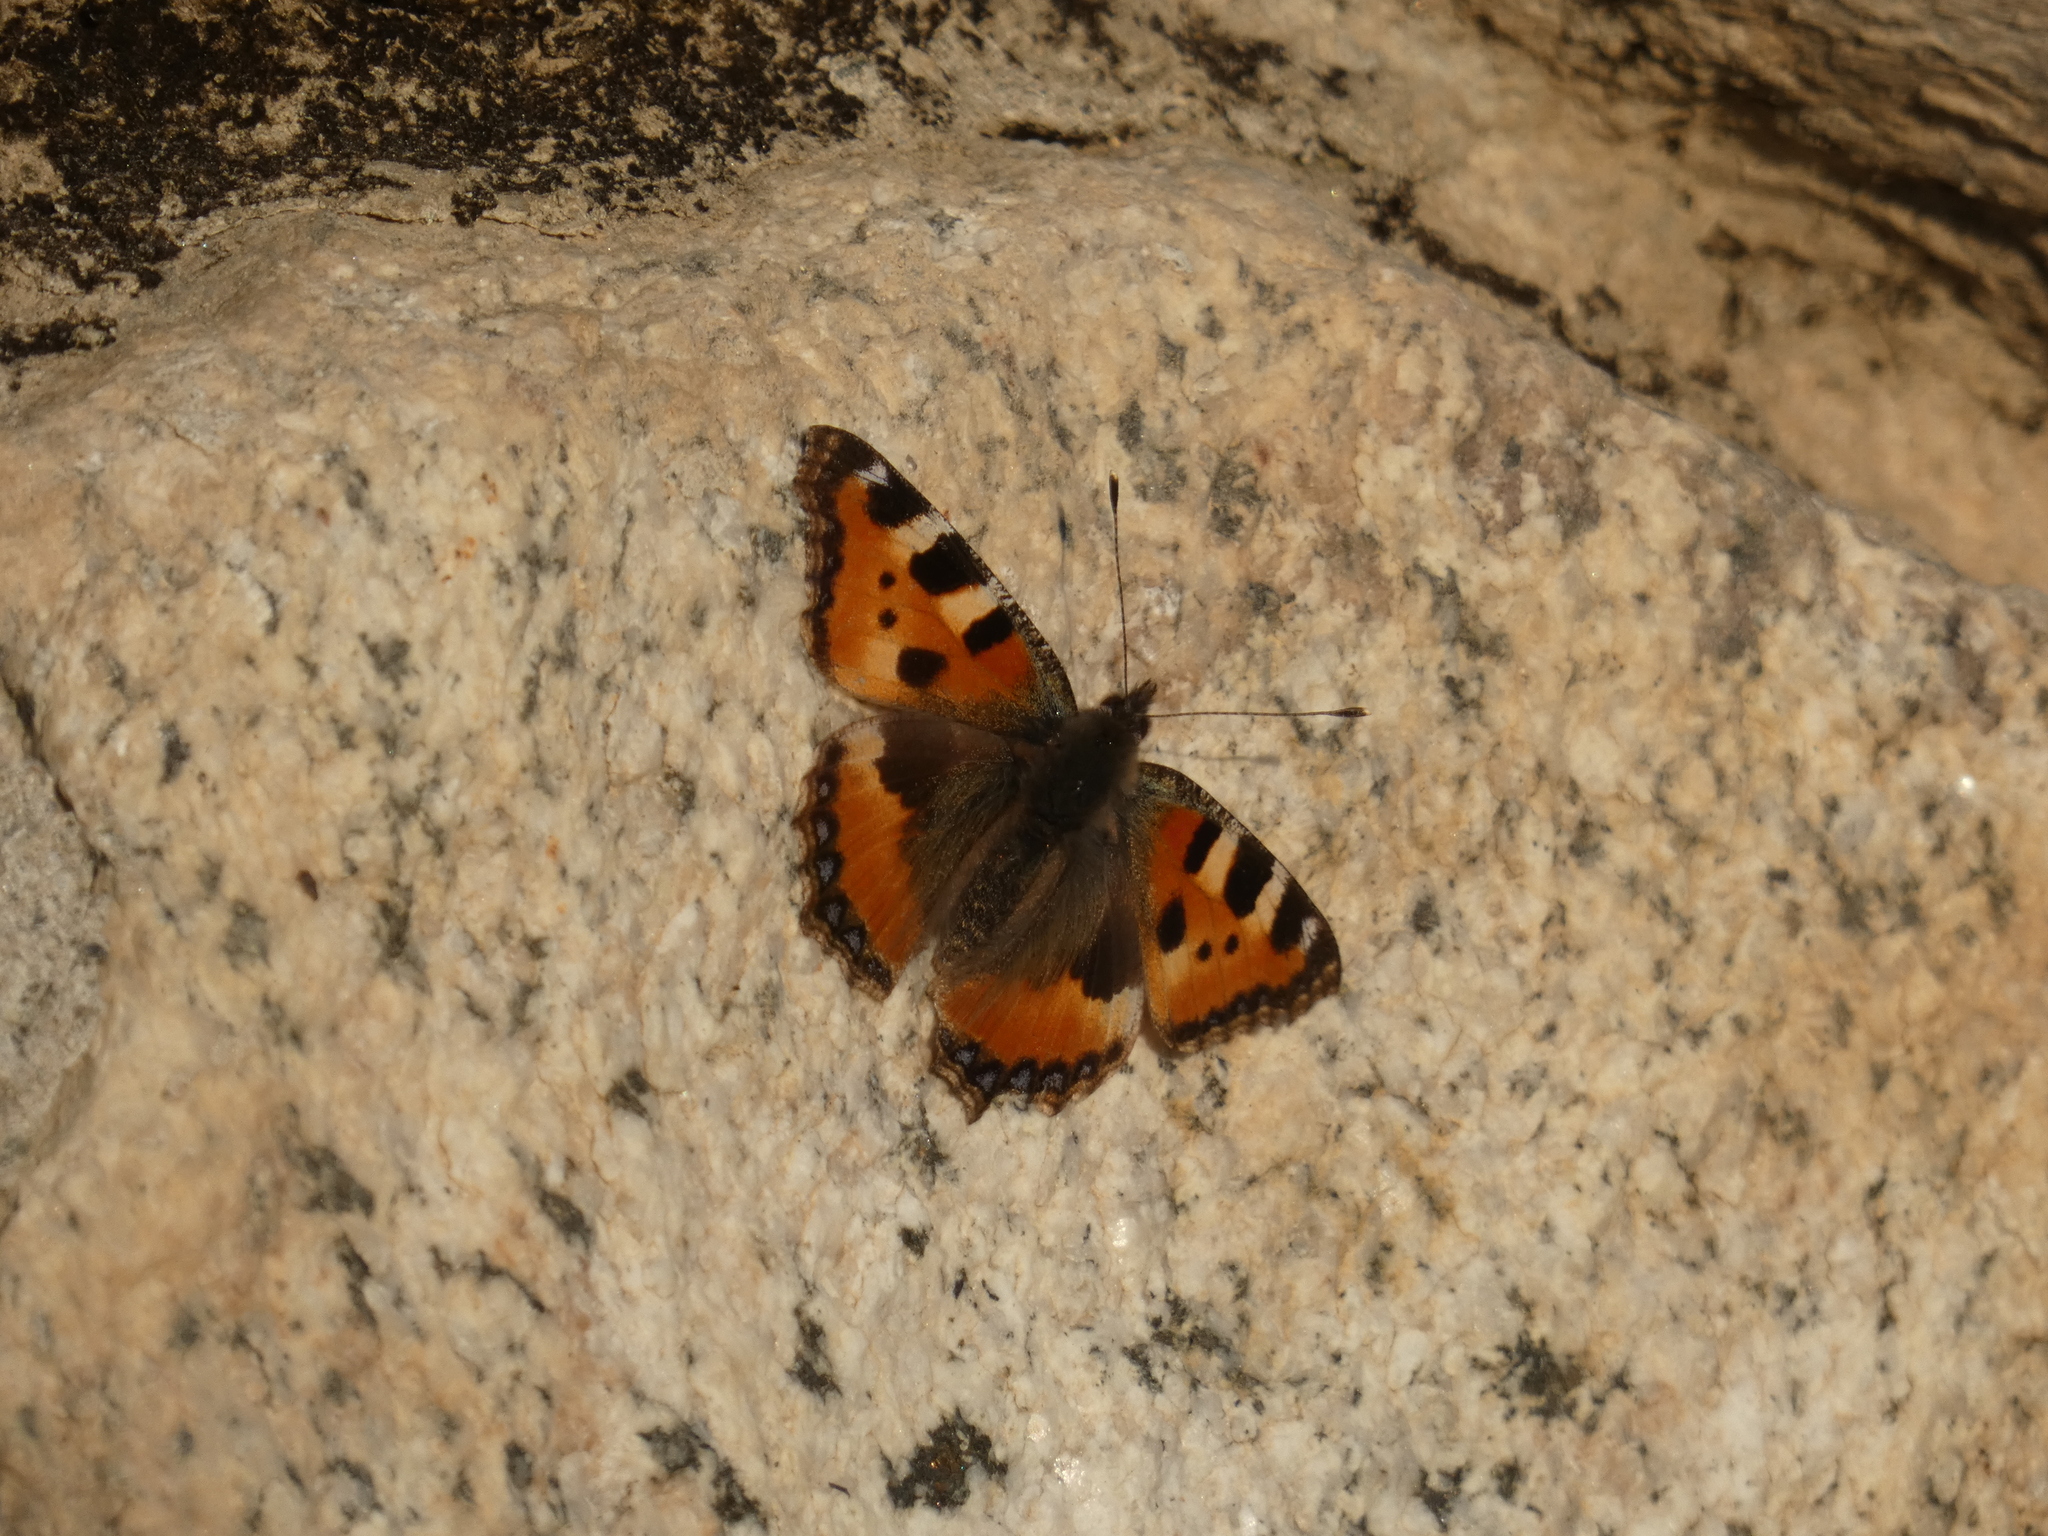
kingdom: Animalia
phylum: Arthropoda
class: Insecta
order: Lepidoptera
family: Nymphalidae
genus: Aglais
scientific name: Aglais urticae
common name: Small tortoiseshell
